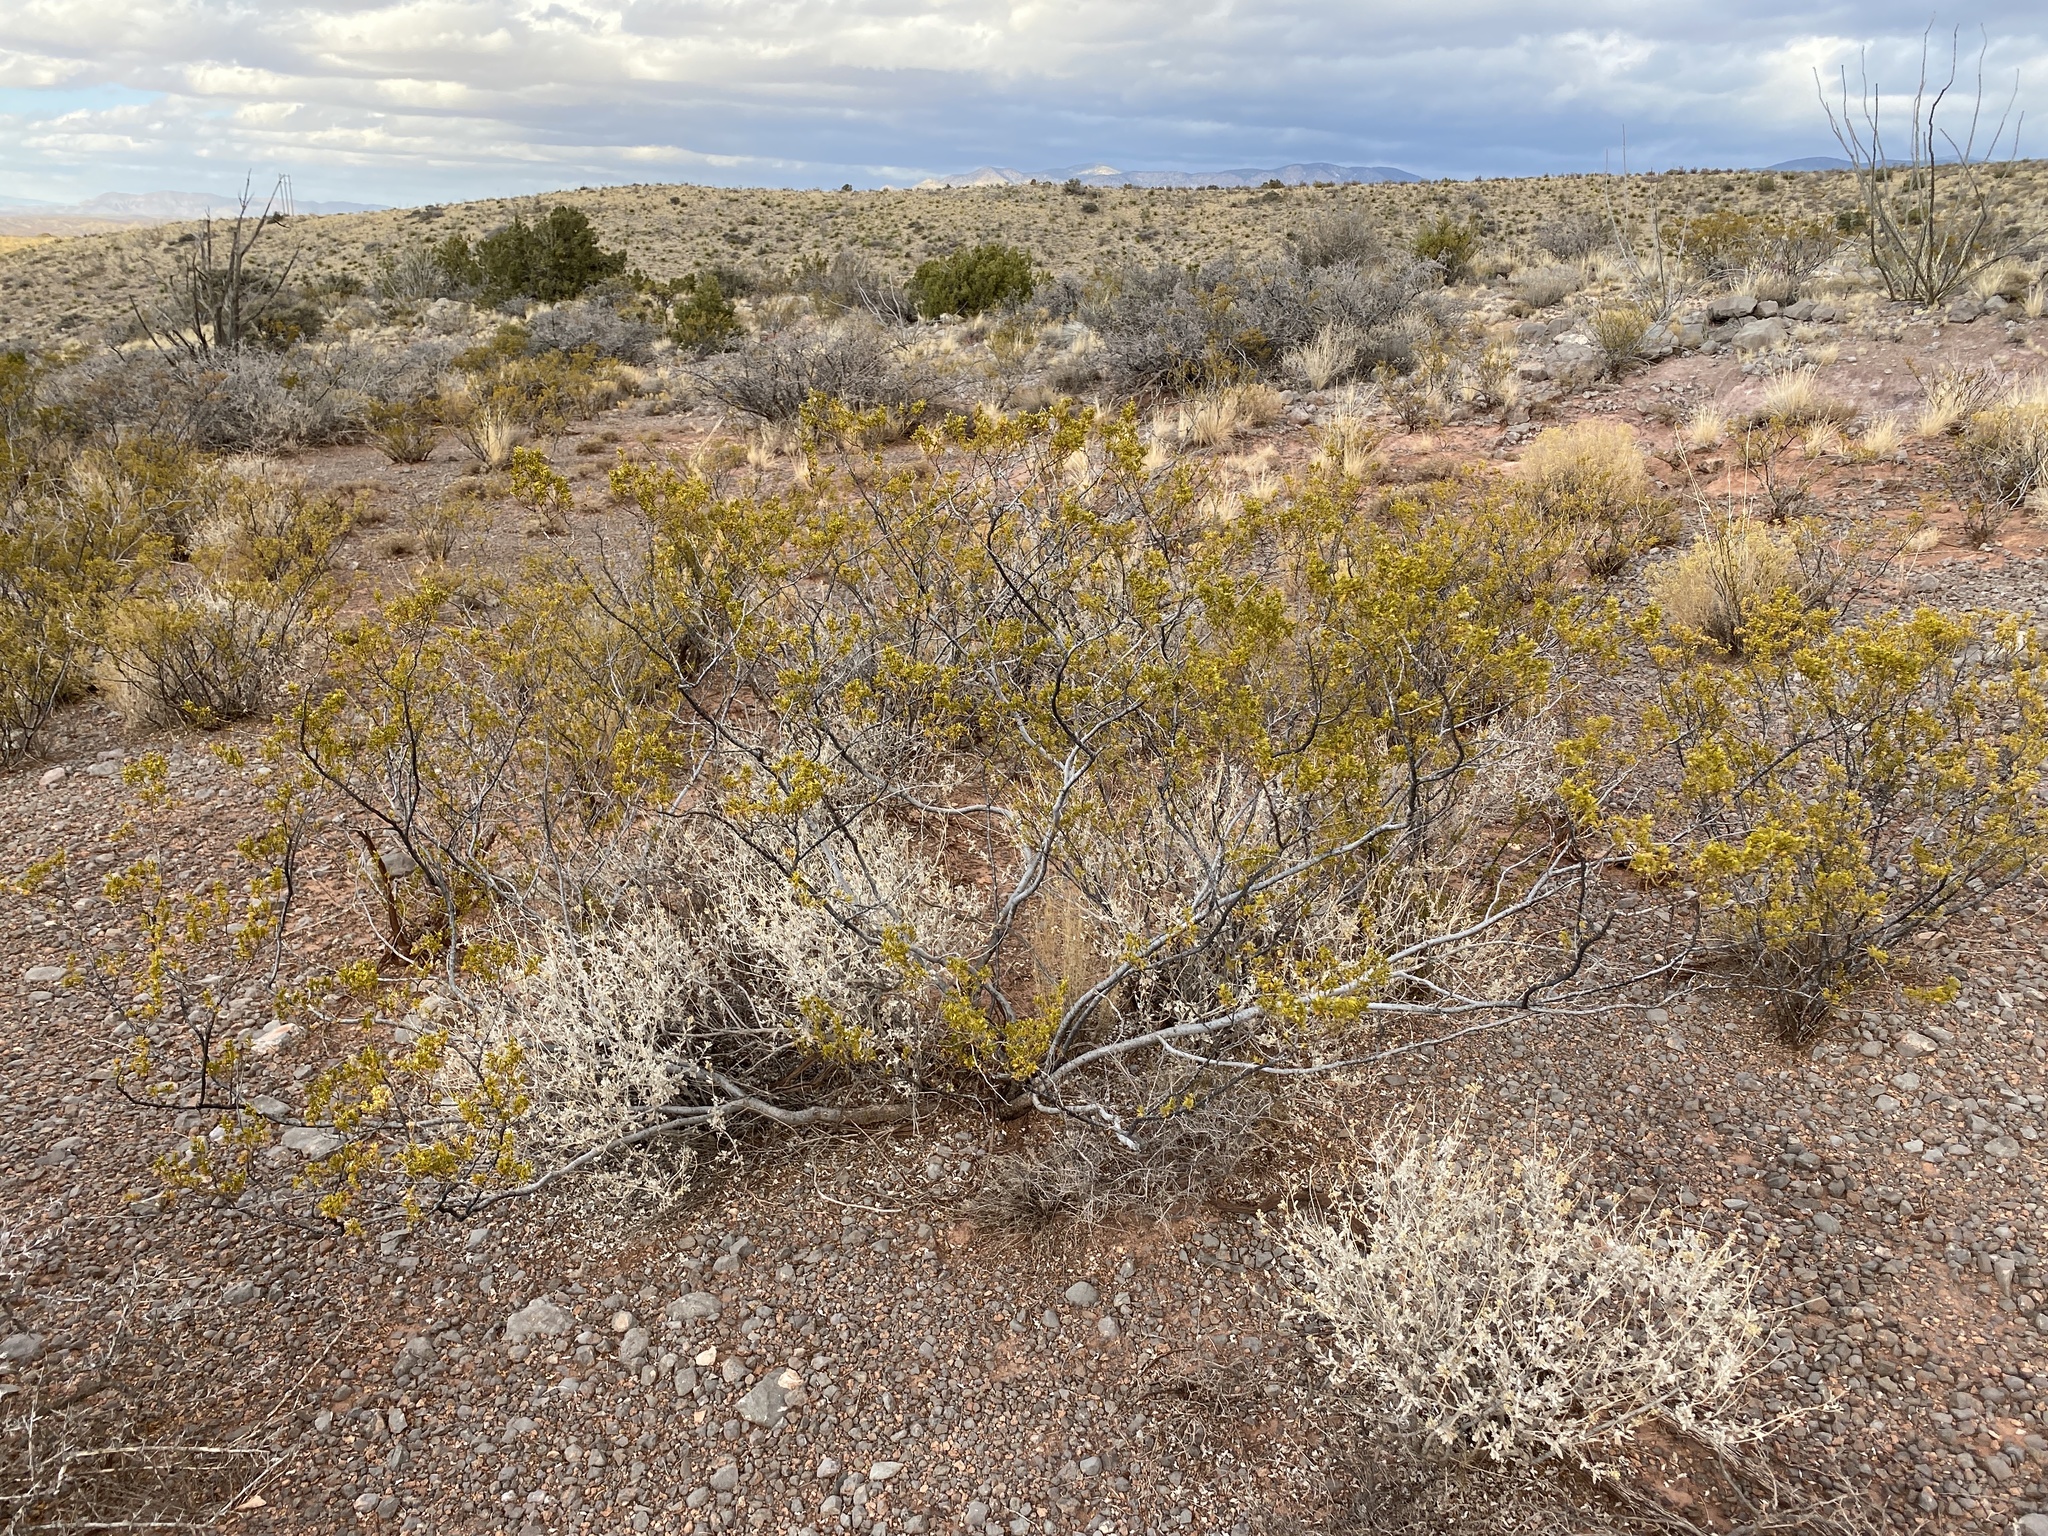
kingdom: Plantae
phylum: Tracheophyta
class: Magnoliopsida
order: Zygophyllales
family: Zygophyllaceae
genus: Larrea
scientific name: Larrea tridentata
